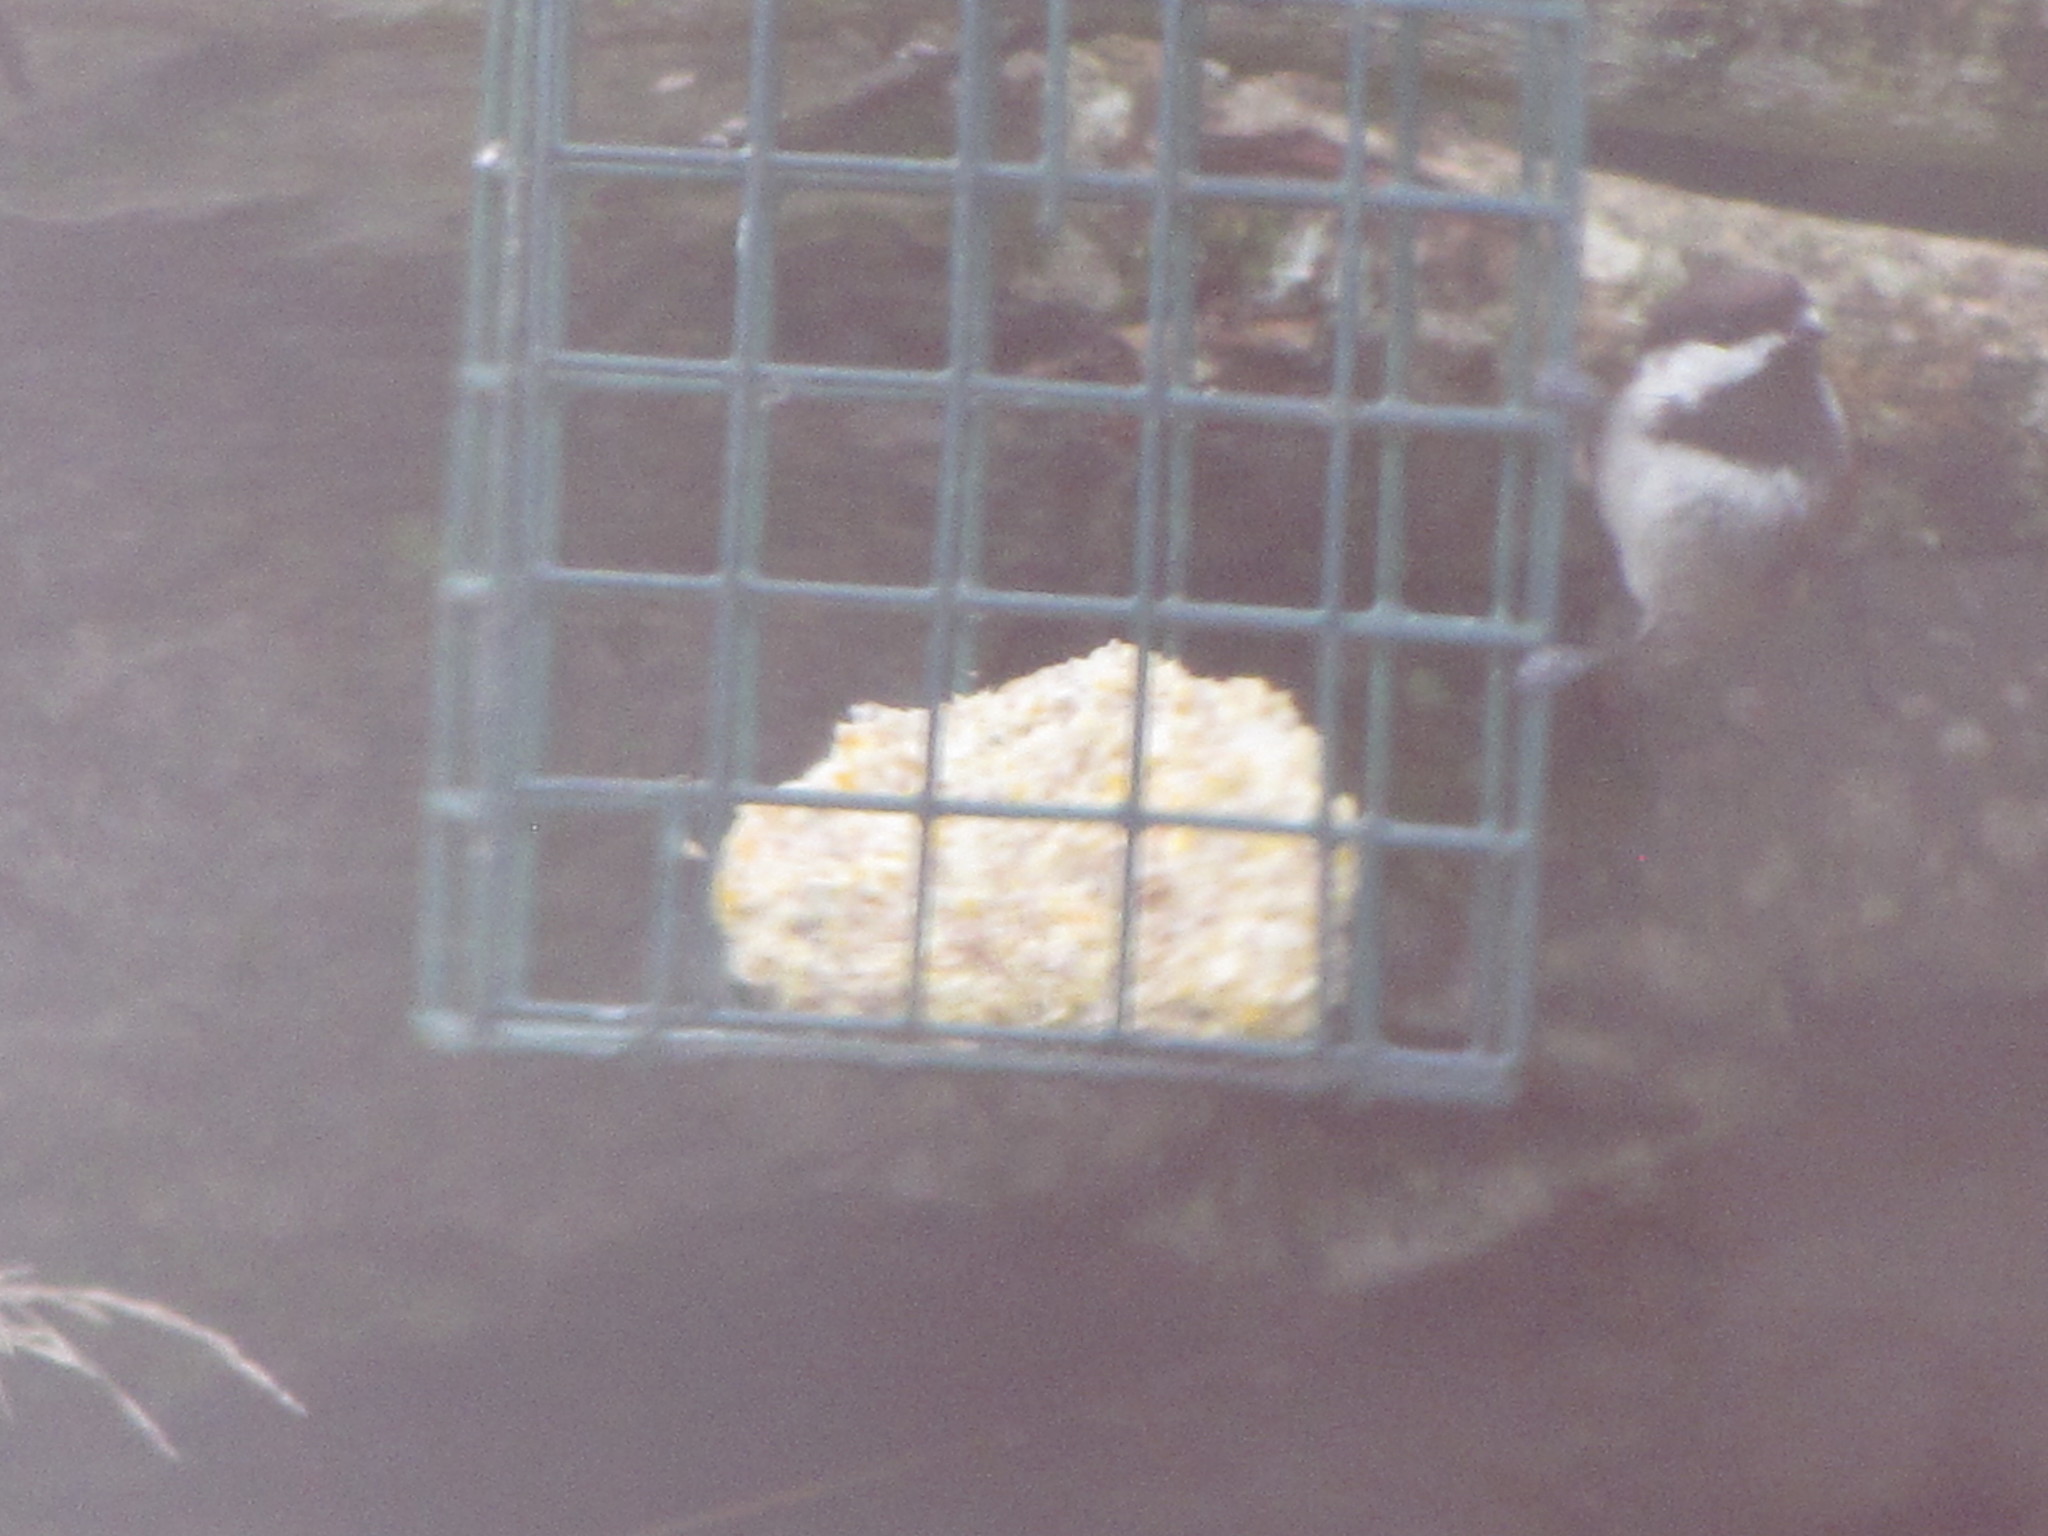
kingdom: Animalia
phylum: Chordata
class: Aves
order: Passeriformes
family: Paridae
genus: Poecile
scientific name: Poecile rufescens
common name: Chestnut-backed chickadee
